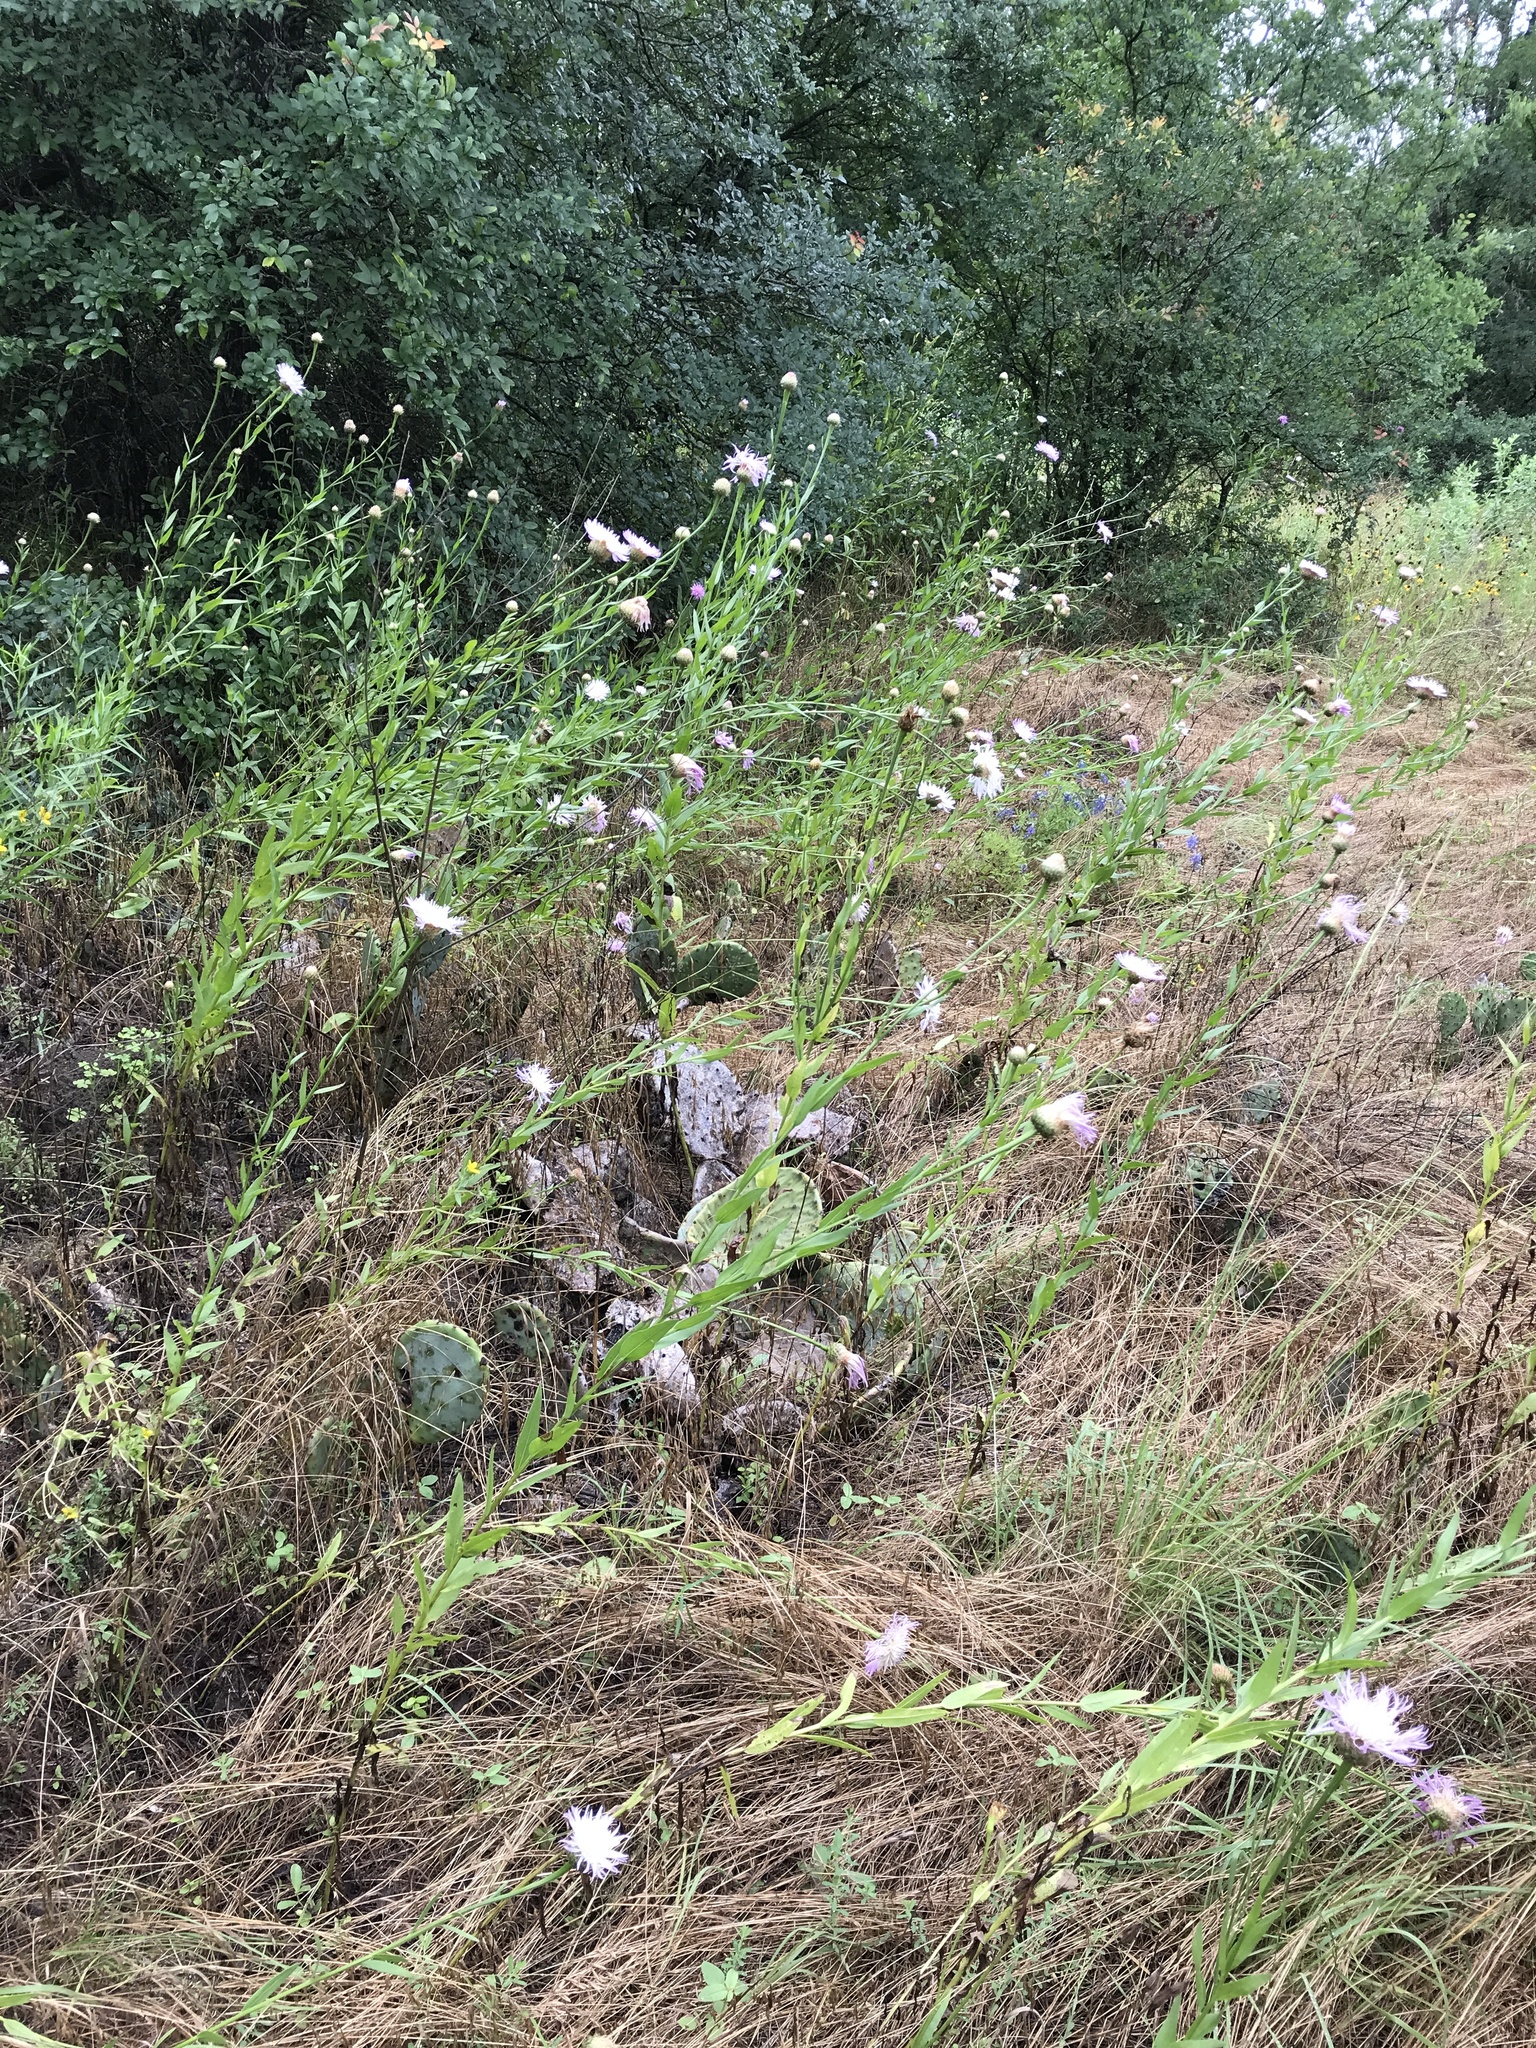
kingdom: Plantae
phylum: Tracheophyta
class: Magnoliopsida
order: Asterales
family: Asteraceae
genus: Plectocephalus
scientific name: Plectocephalus americanus
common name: American basket-flower
